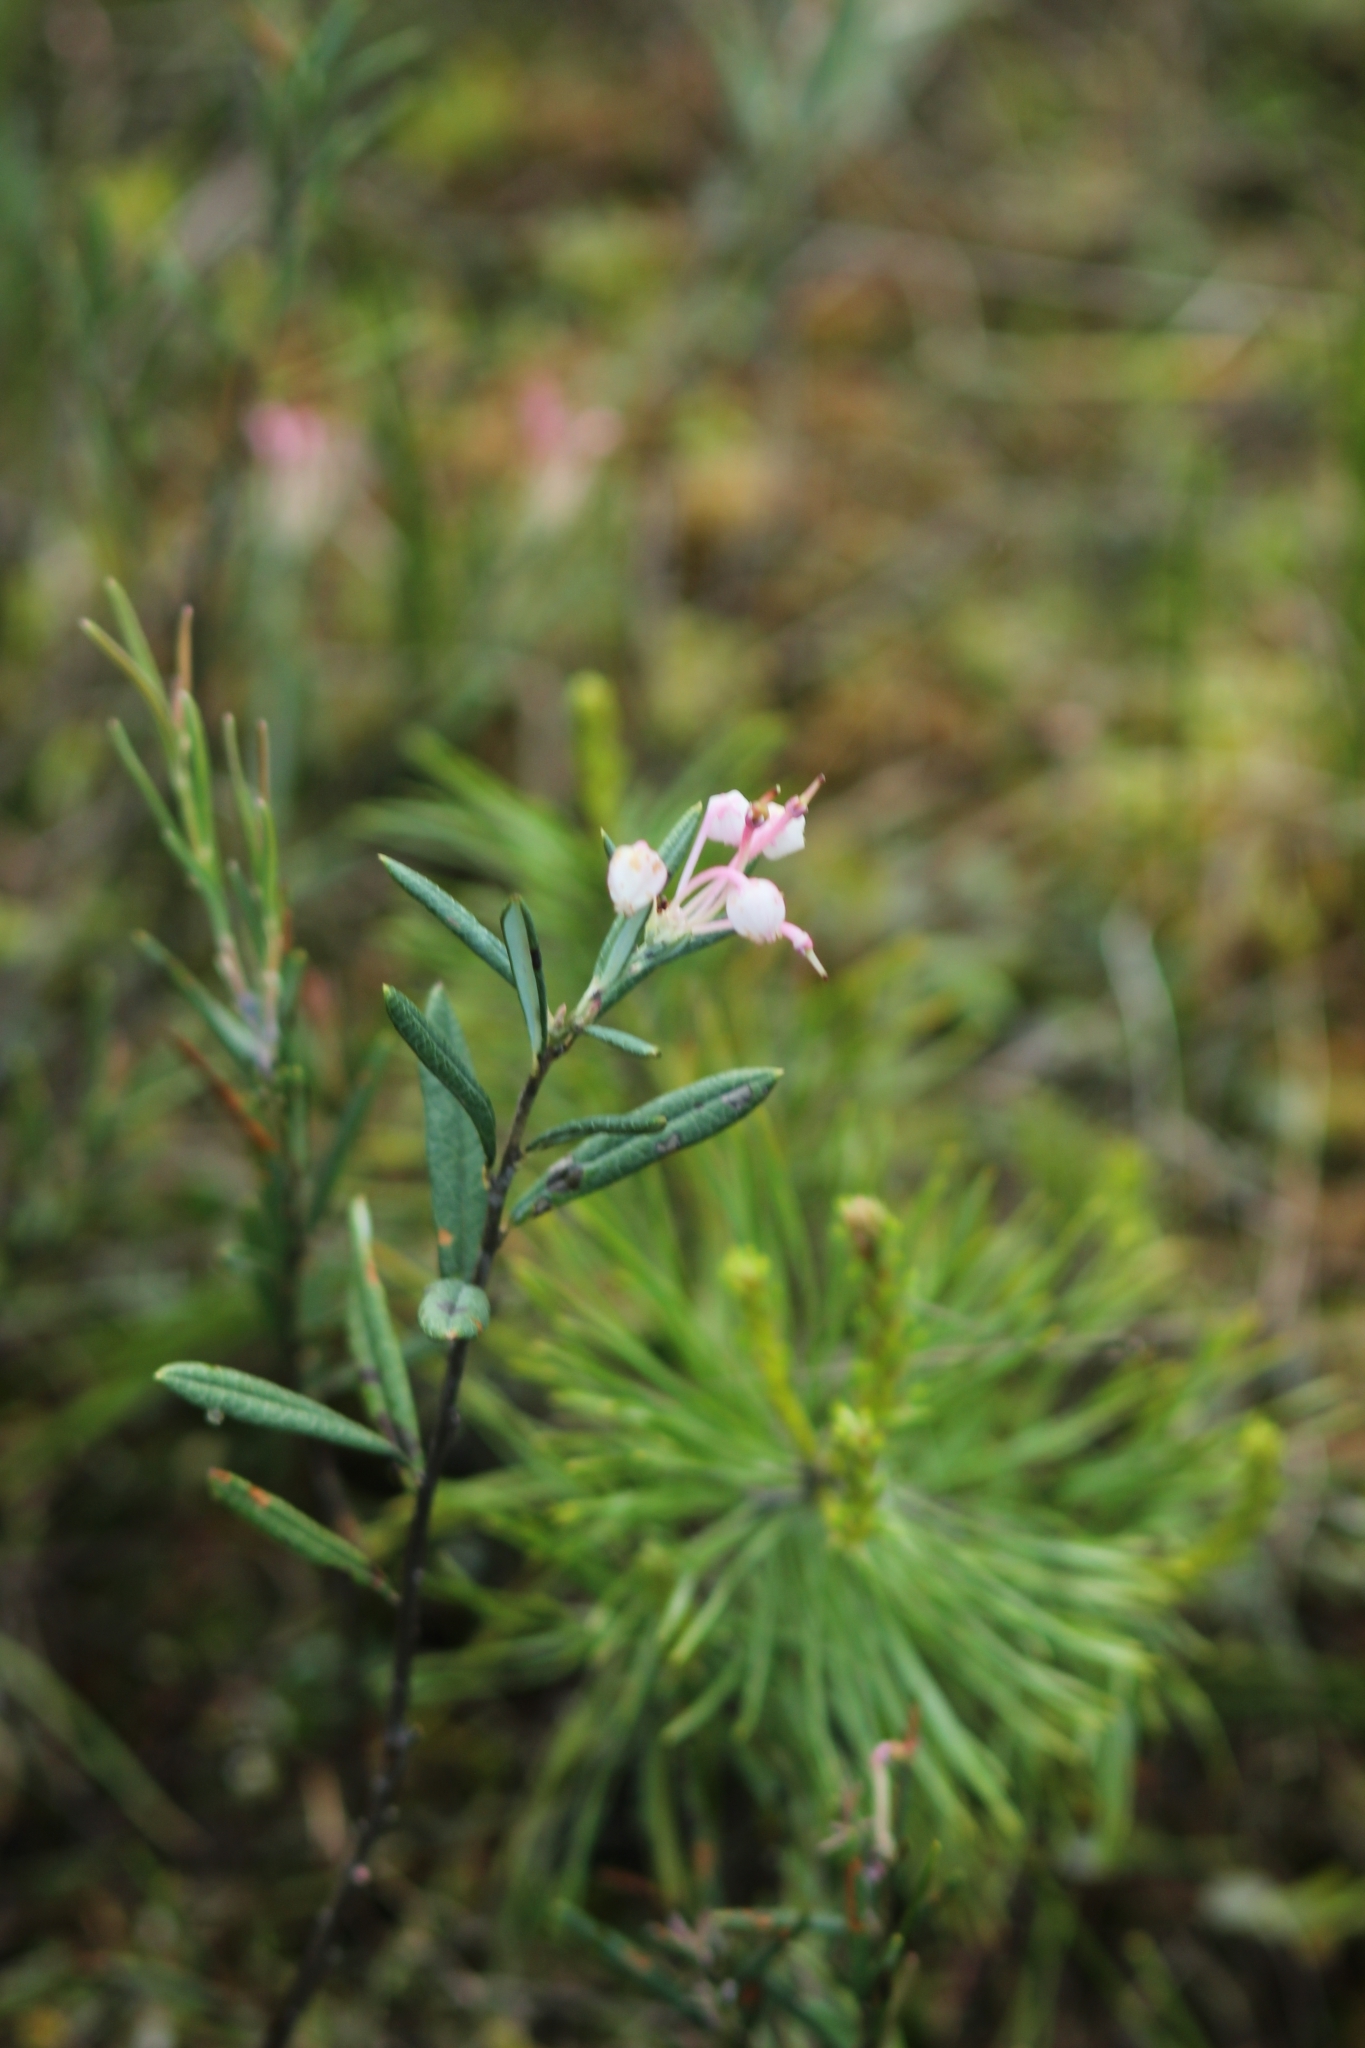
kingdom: Plantae
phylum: Tracheophyta
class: Magnoliopsida
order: Ericales
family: Ericaceae
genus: Andromeda
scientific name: Andromeda polifolia
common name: Bog-rosemary
